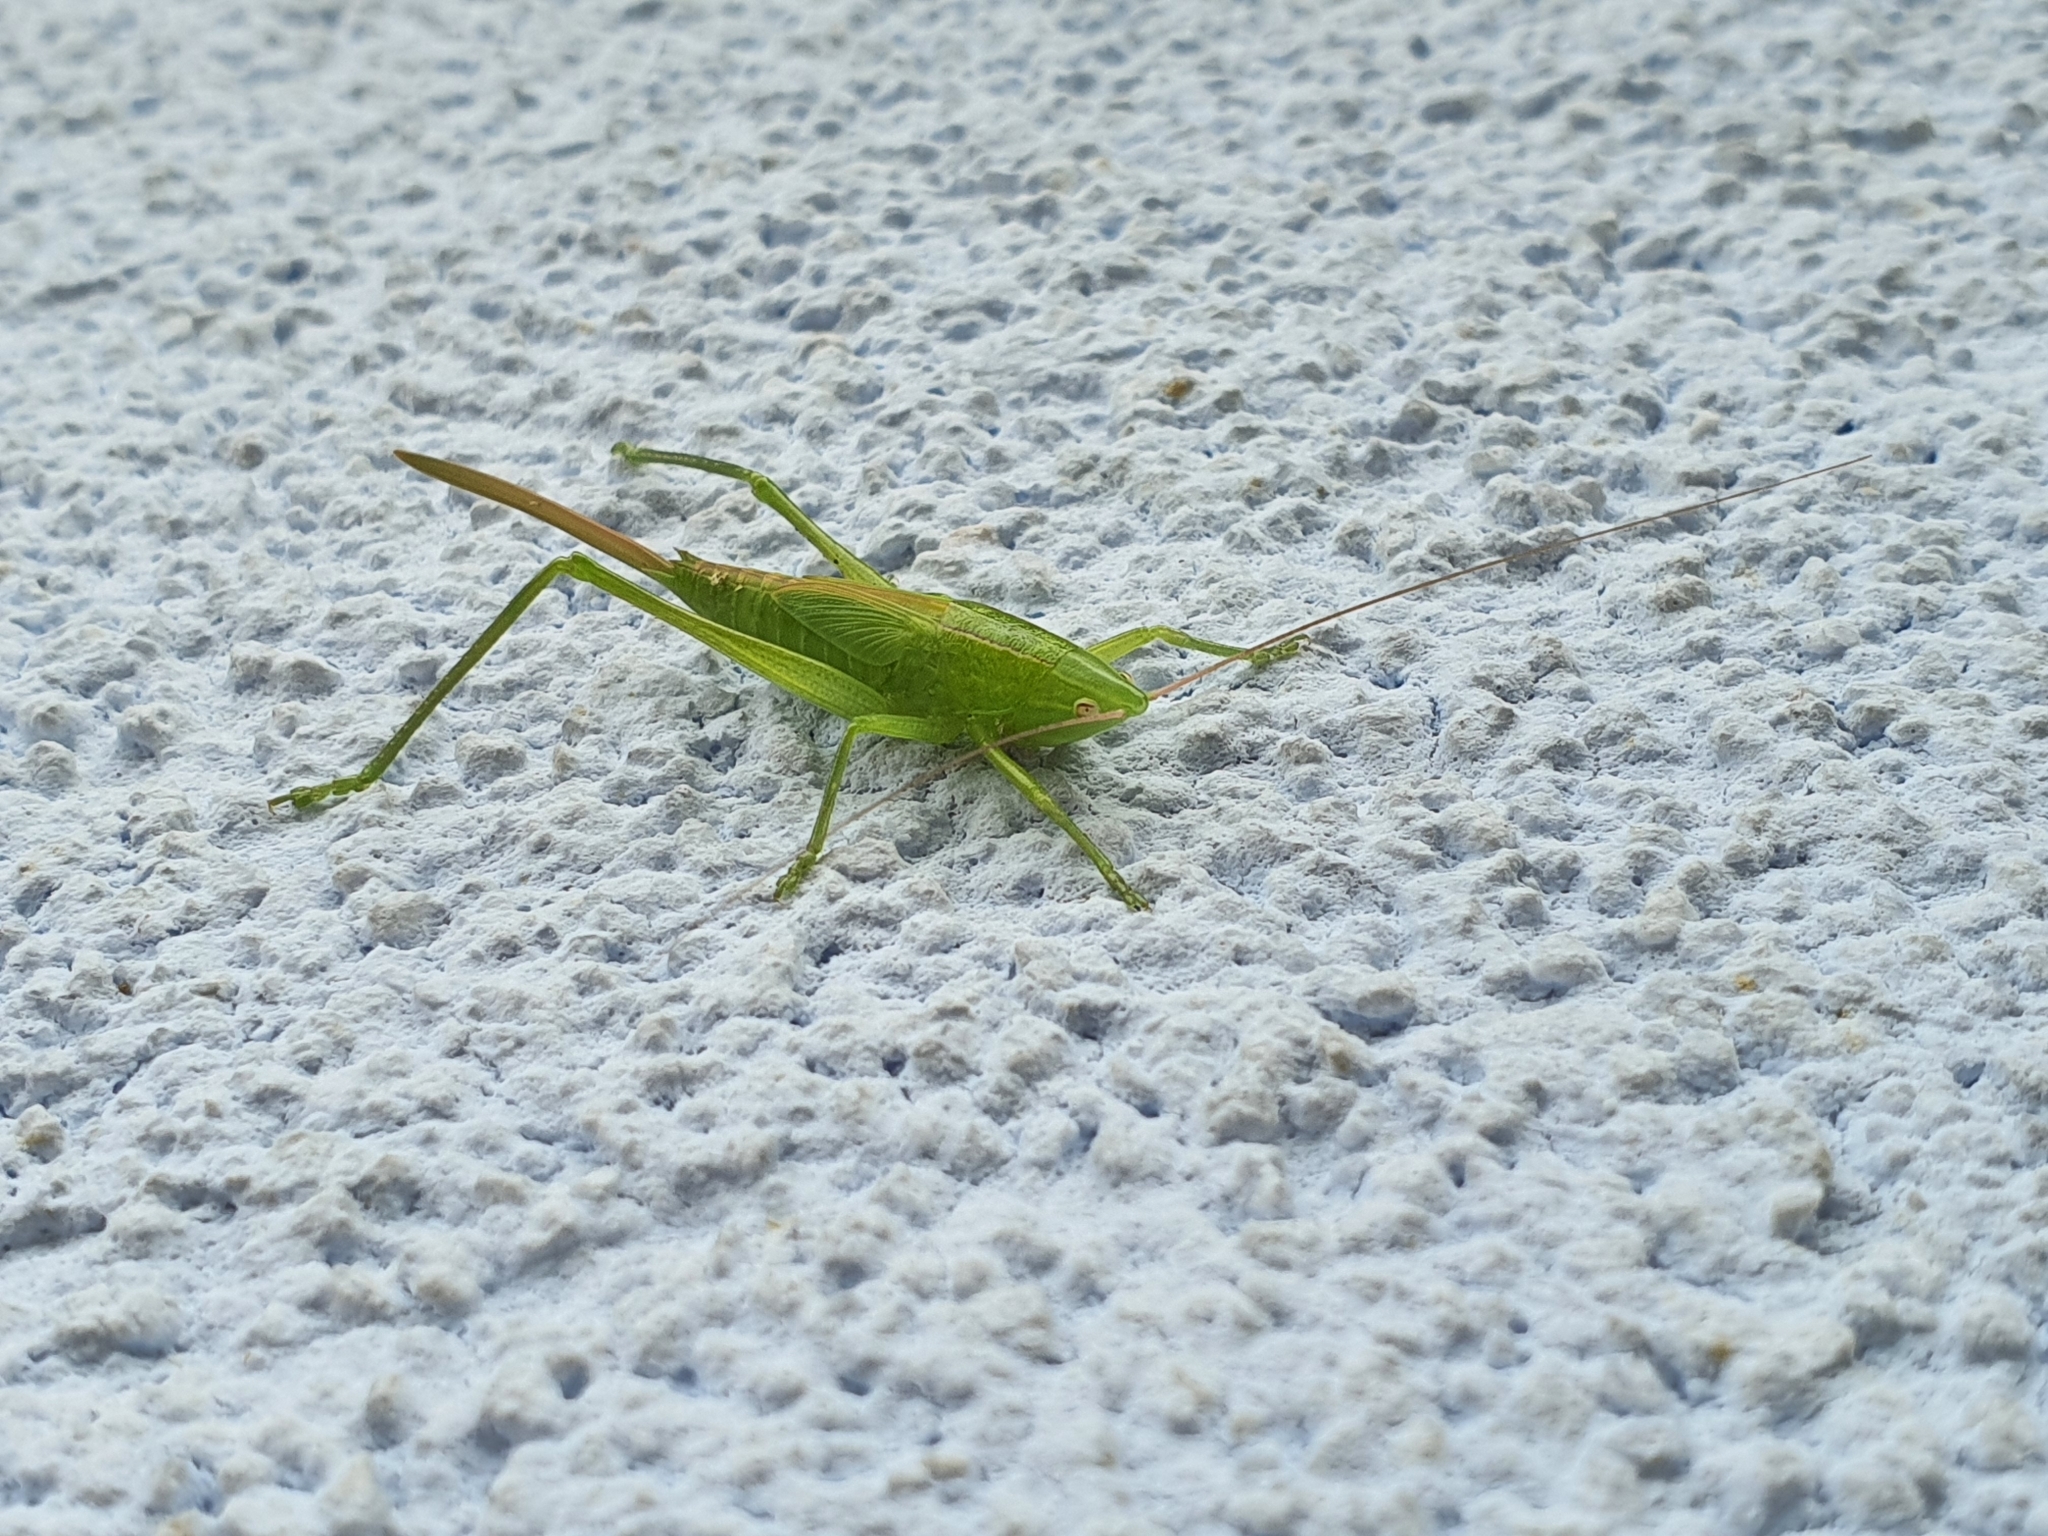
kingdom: Animalia
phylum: Arthropoda
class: Insecta
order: Orthoptera
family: Tettigoniidae
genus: Ruspolia
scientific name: Ruspolia nitidula
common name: Large conehead
